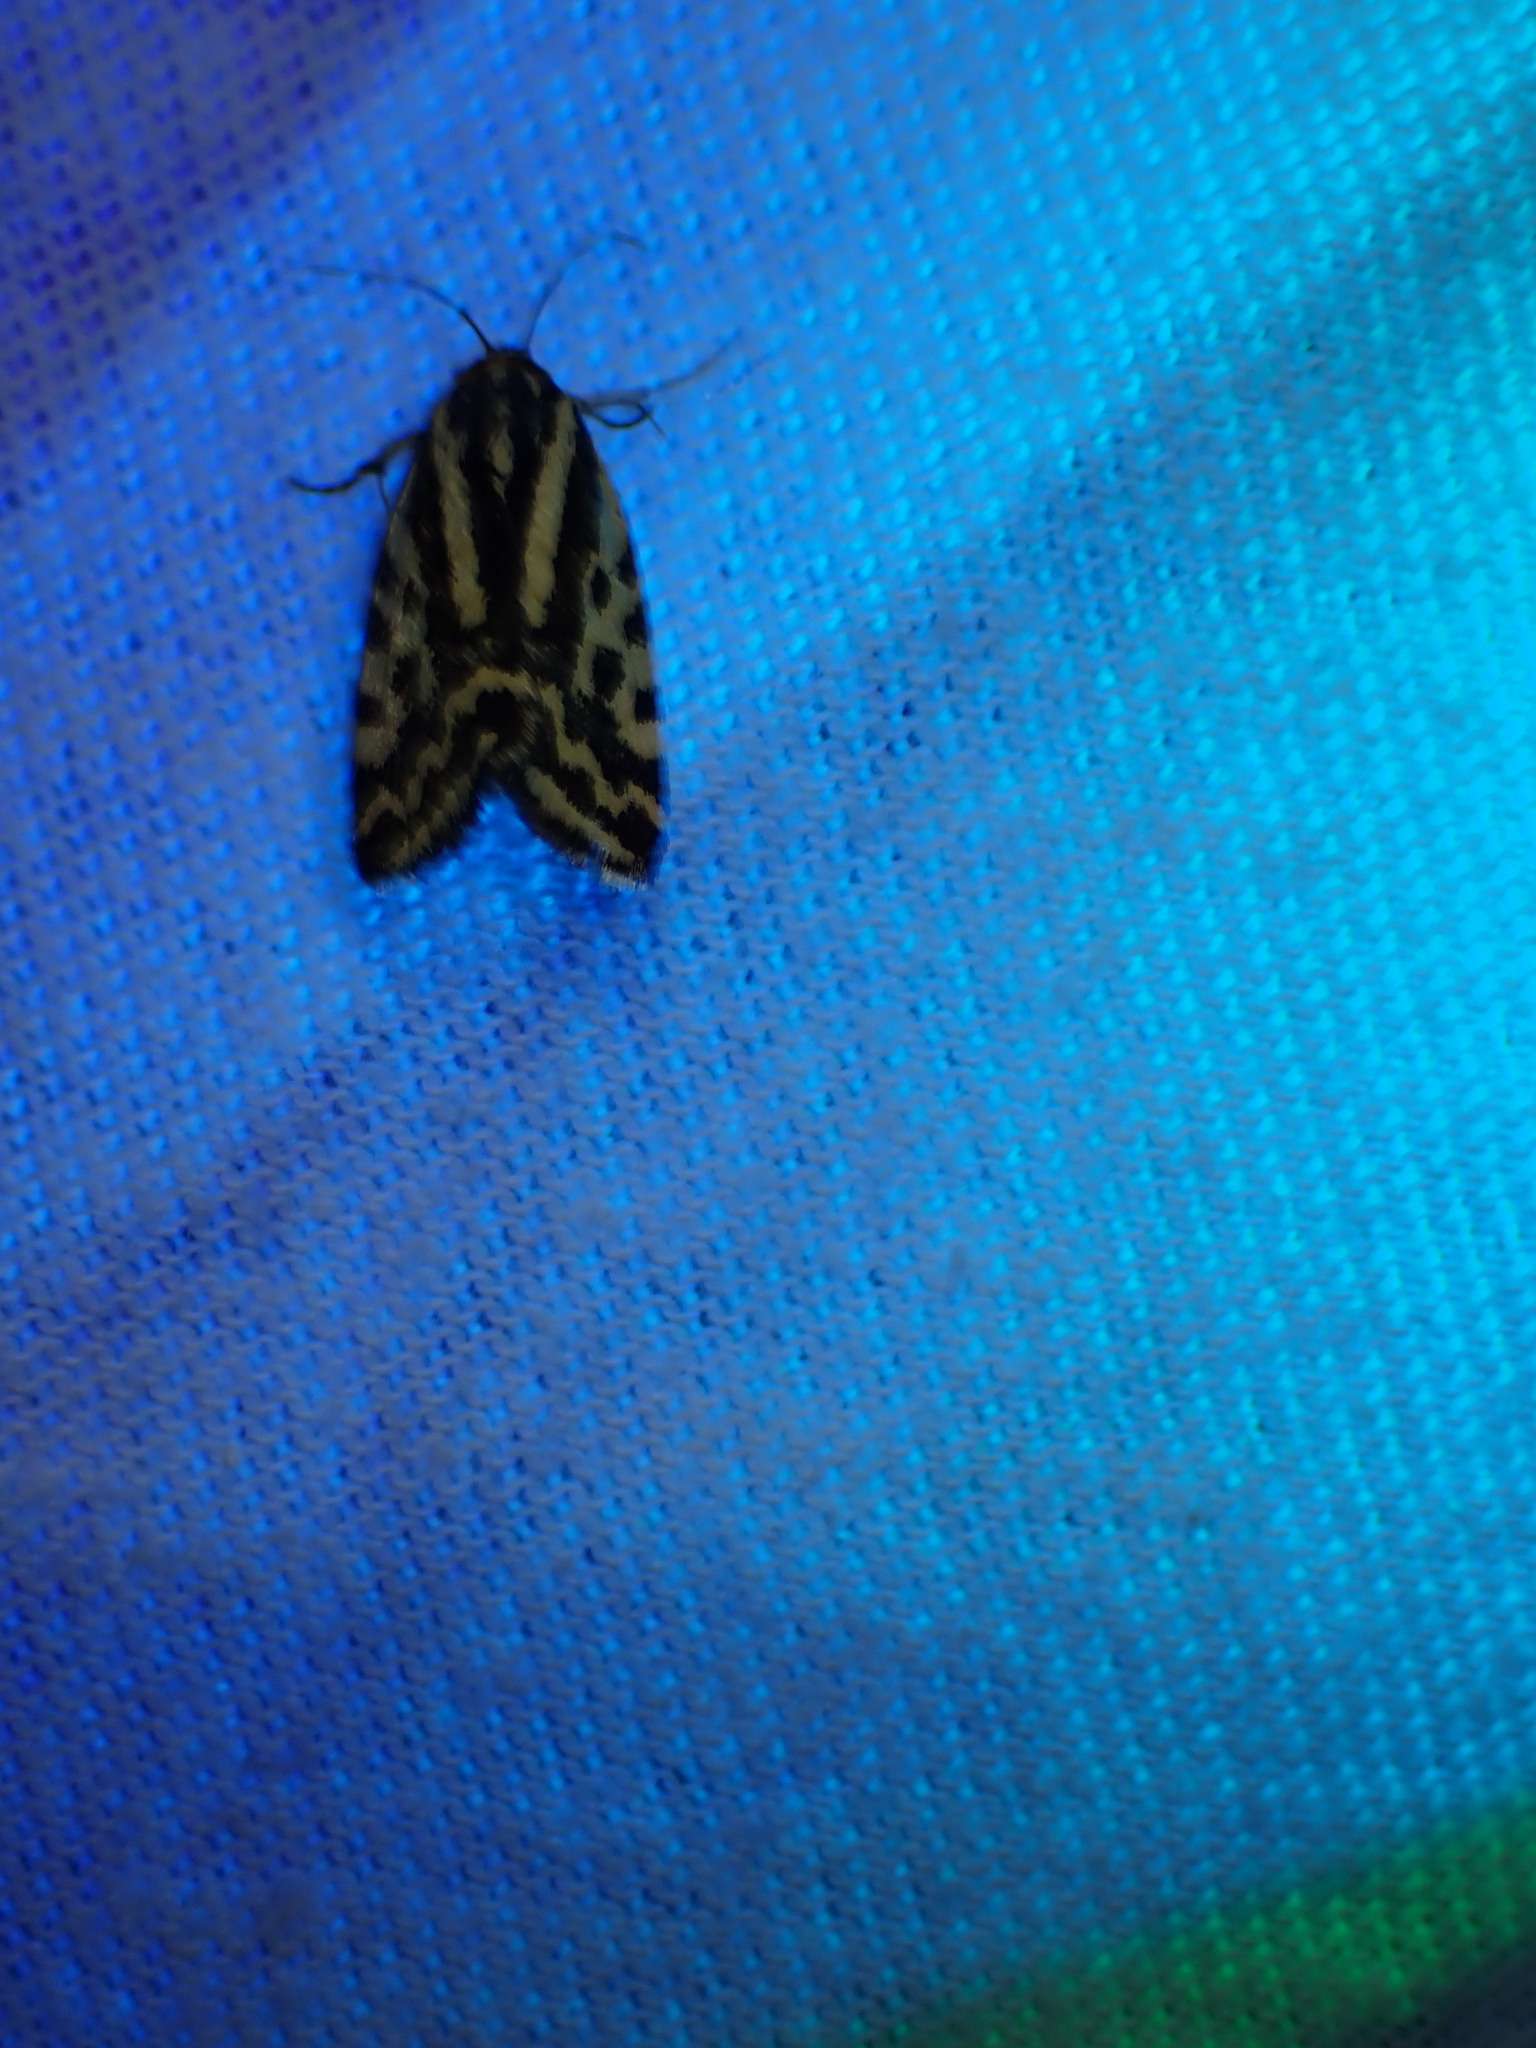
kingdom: Animalia
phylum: Arthropoda
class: Insecta
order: Lepidoptera
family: Noctuidae
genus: Acontia
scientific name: Acontia trabealis
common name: Spotted sulphur
